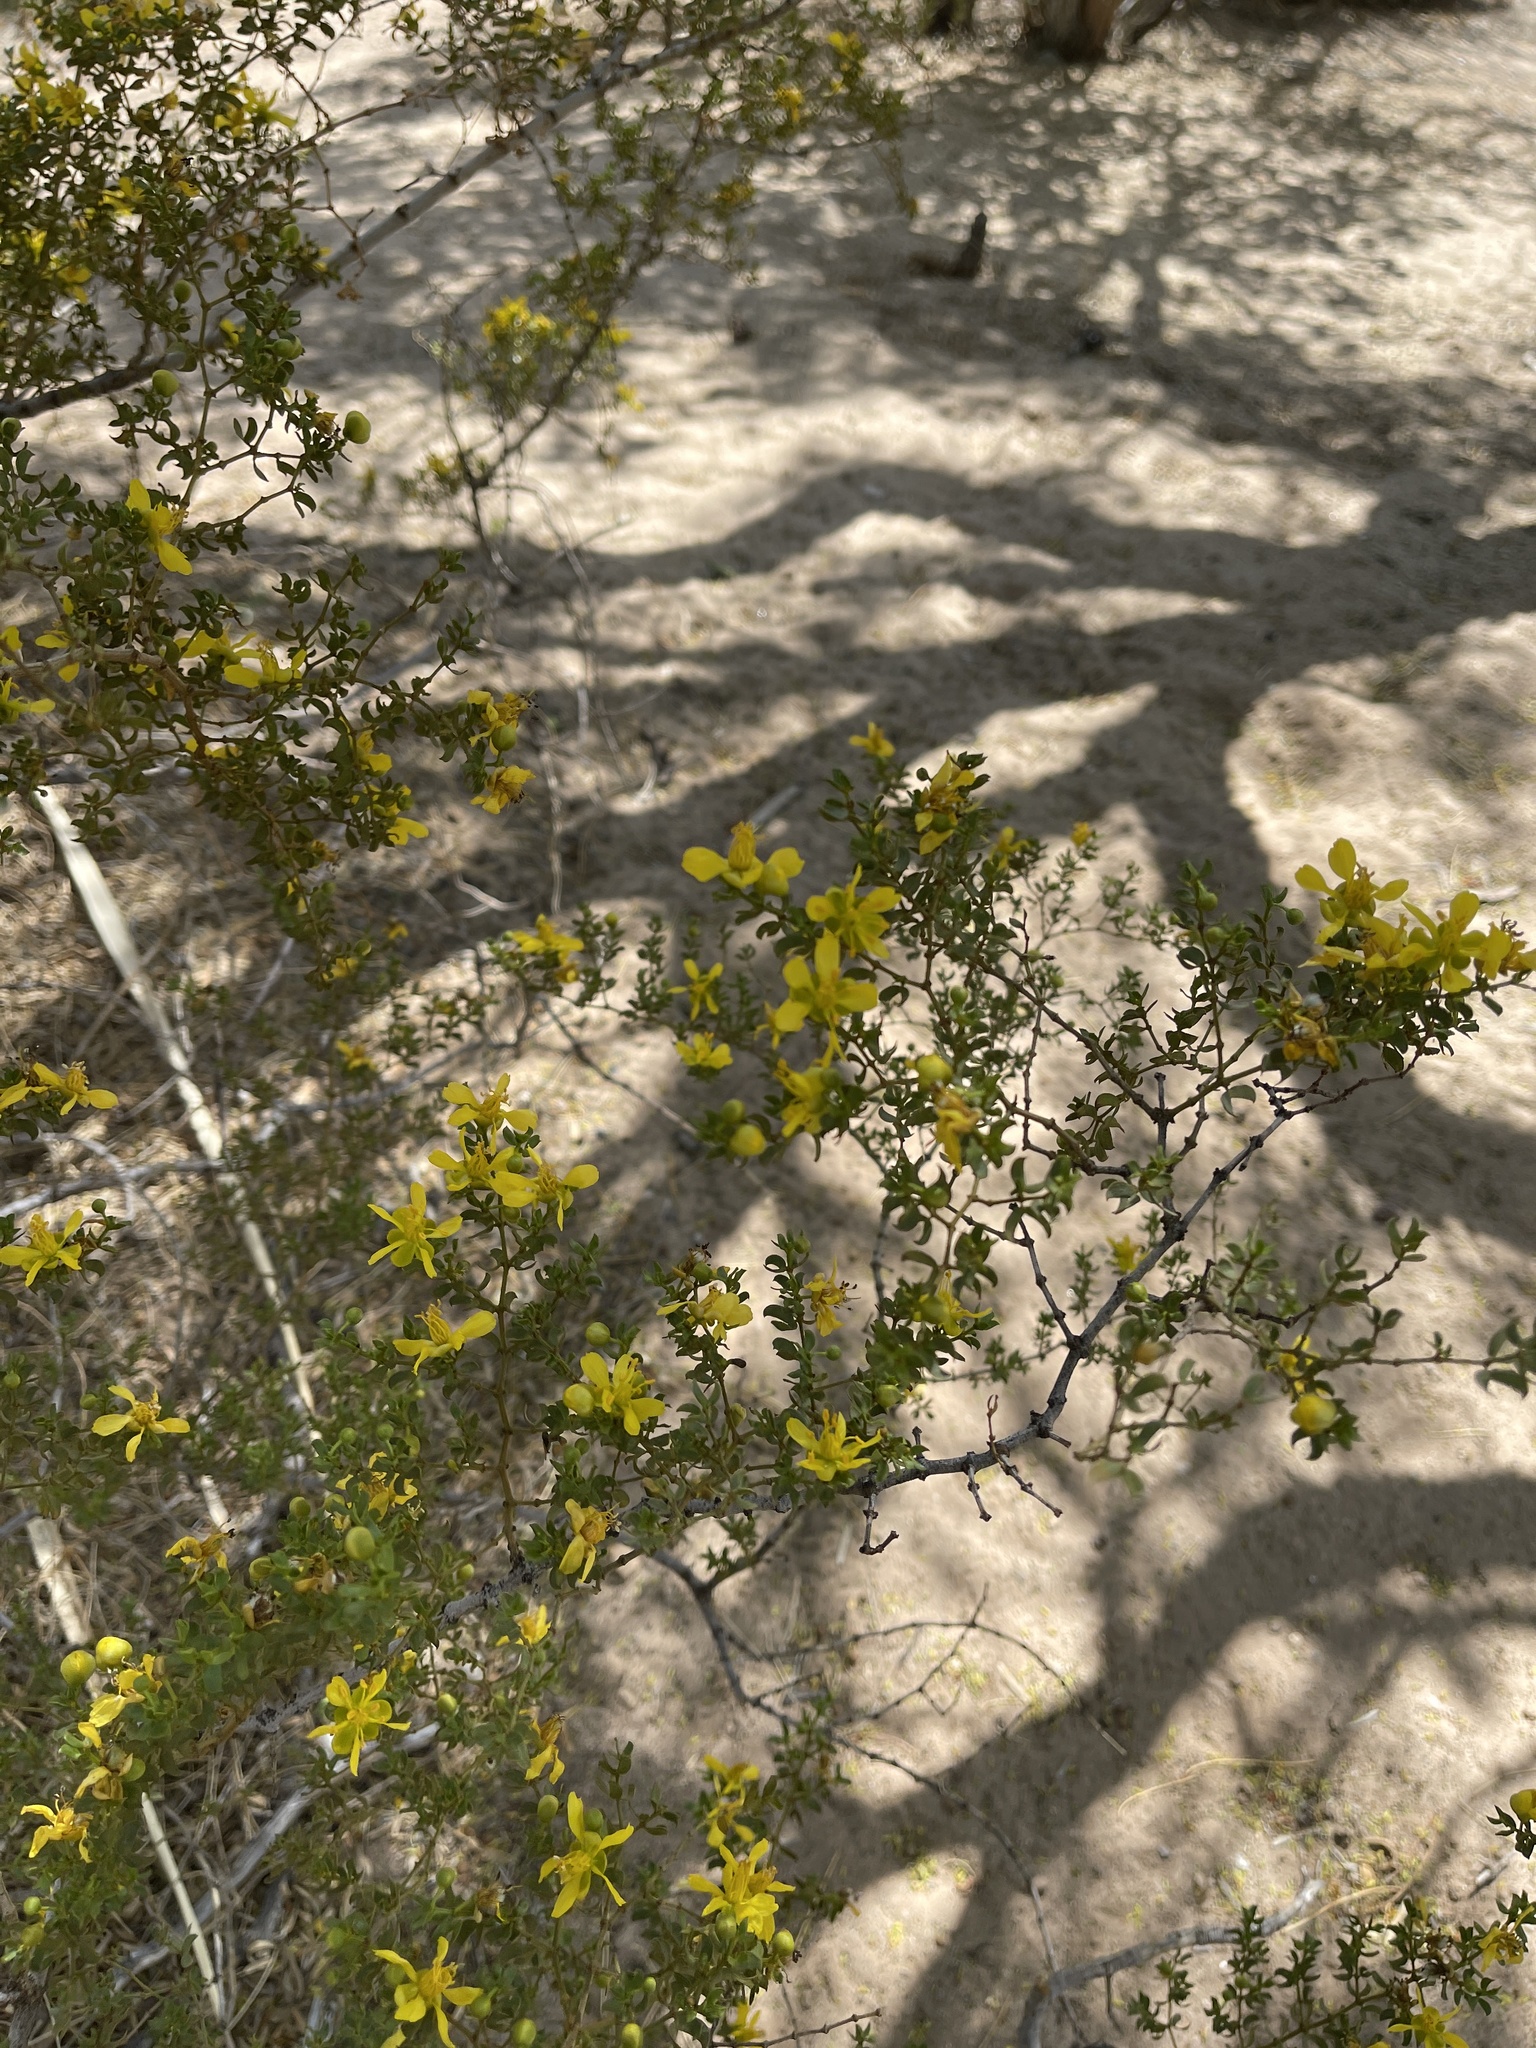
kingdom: Plantae
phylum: Tracheophyta
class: Magnoliopsida
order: Zygophyllales
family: Zygophyllaceae
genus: Larrea
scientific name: Larrea tridentata
